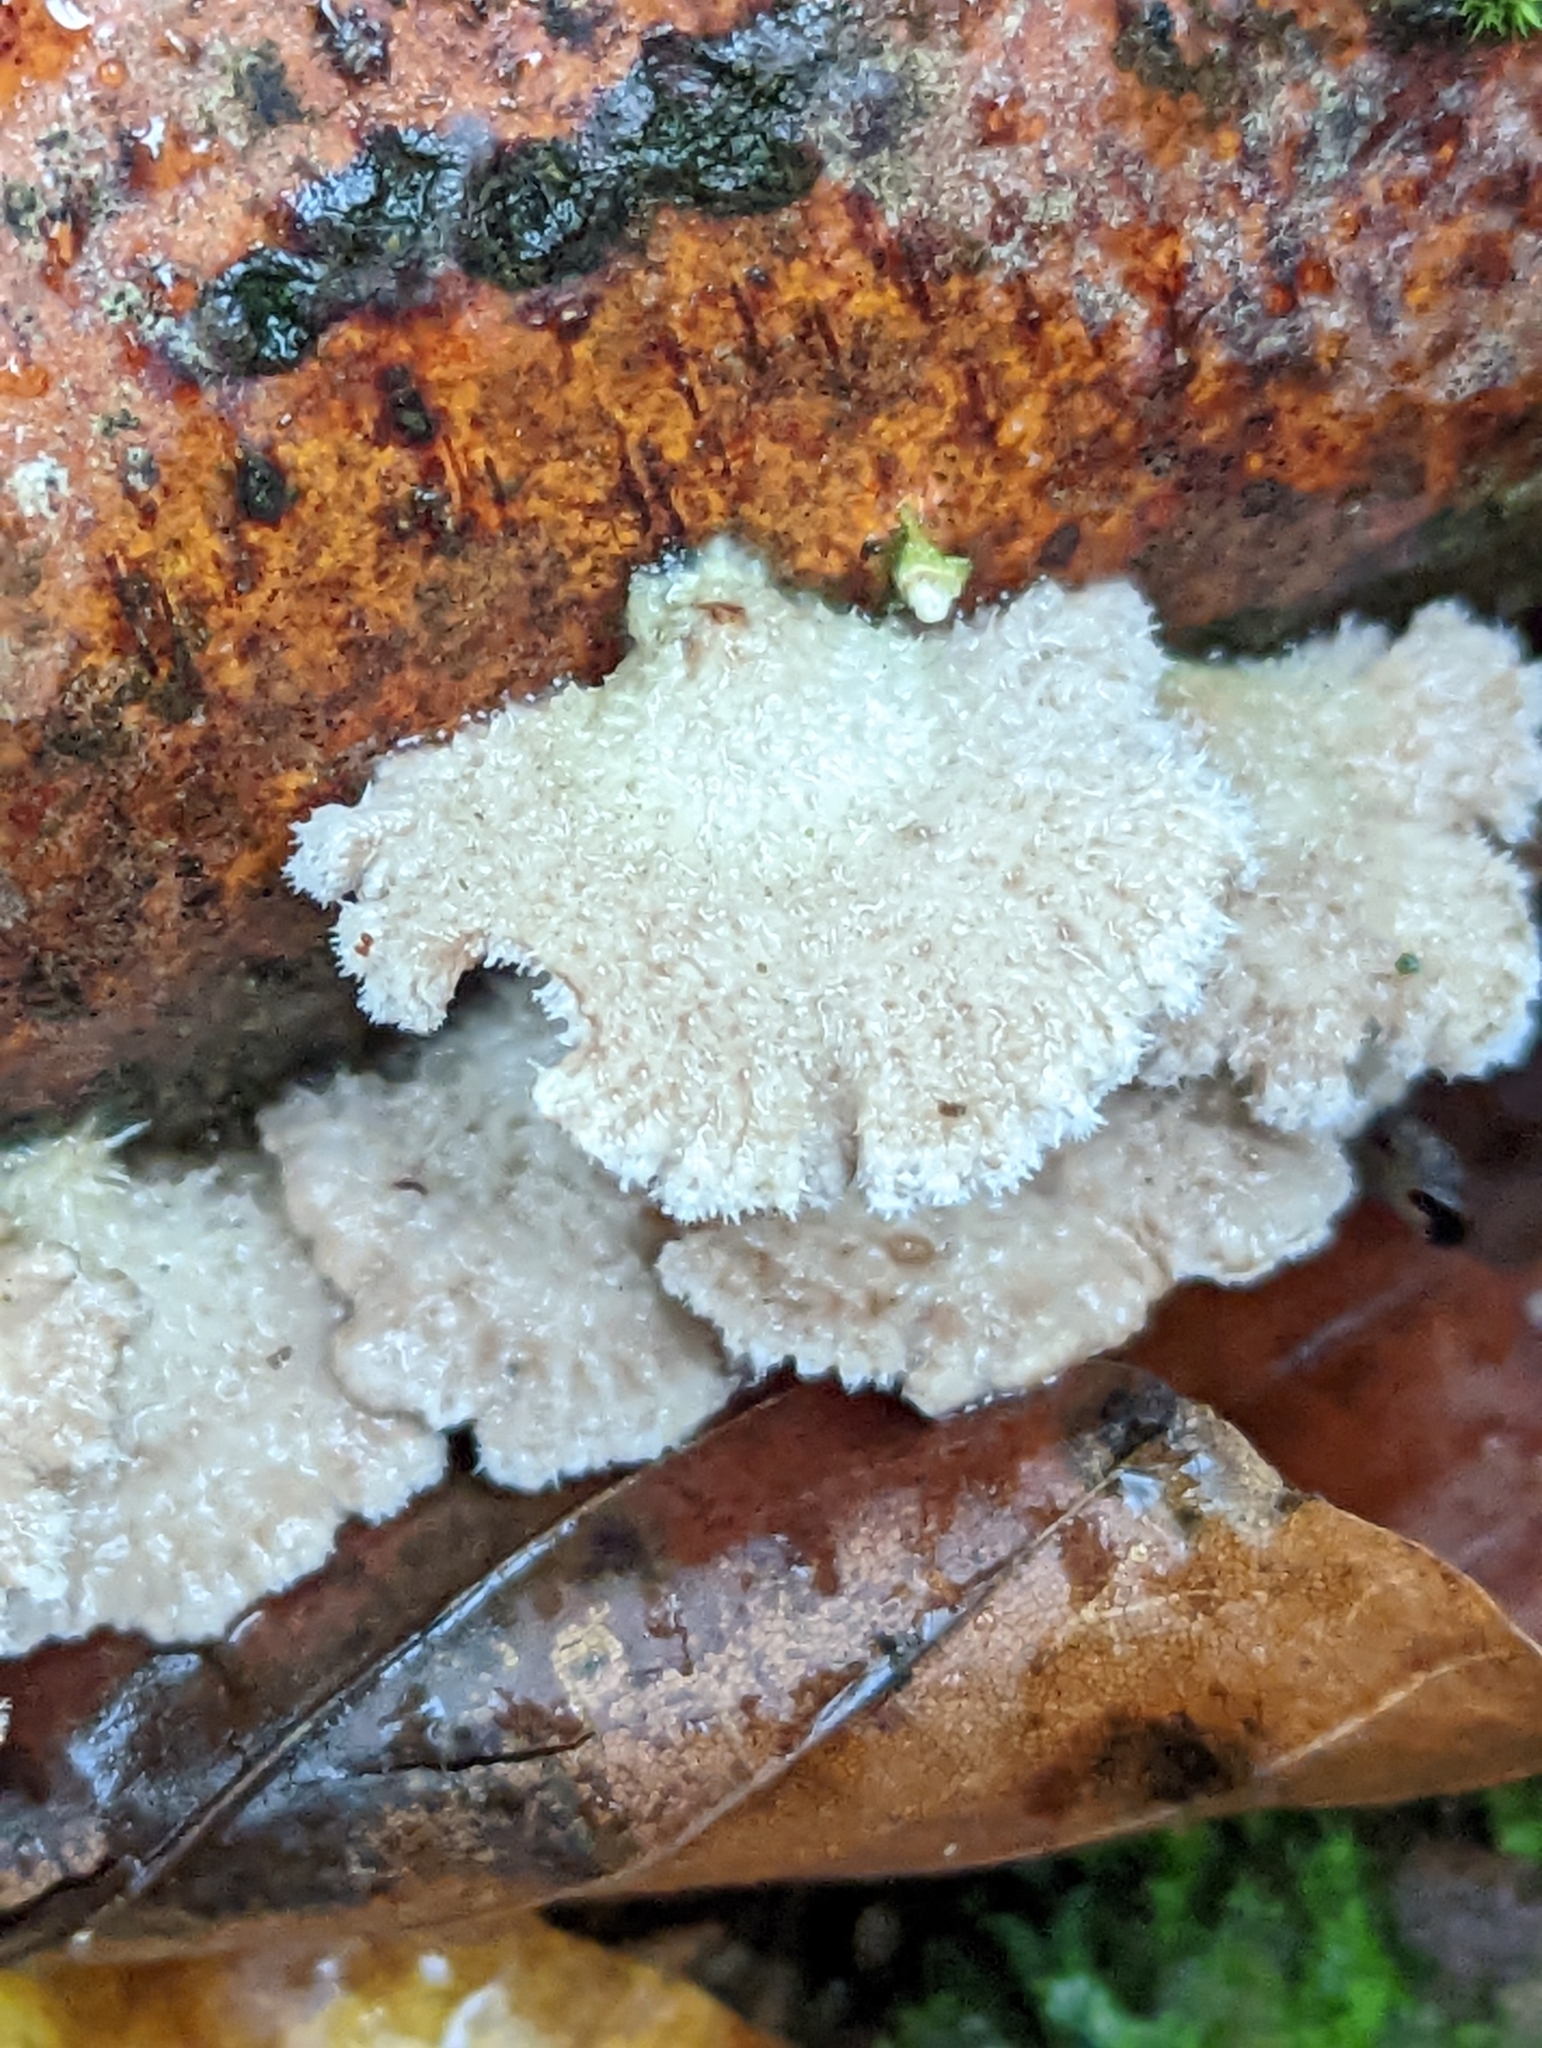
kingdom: Fungi
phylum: Basidiomycota
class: Agaricomycetes
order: Agaricales
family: Schizophyllaceae
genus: Schizophyllum
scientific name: Schizophyllum commune
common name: Common porecrust
